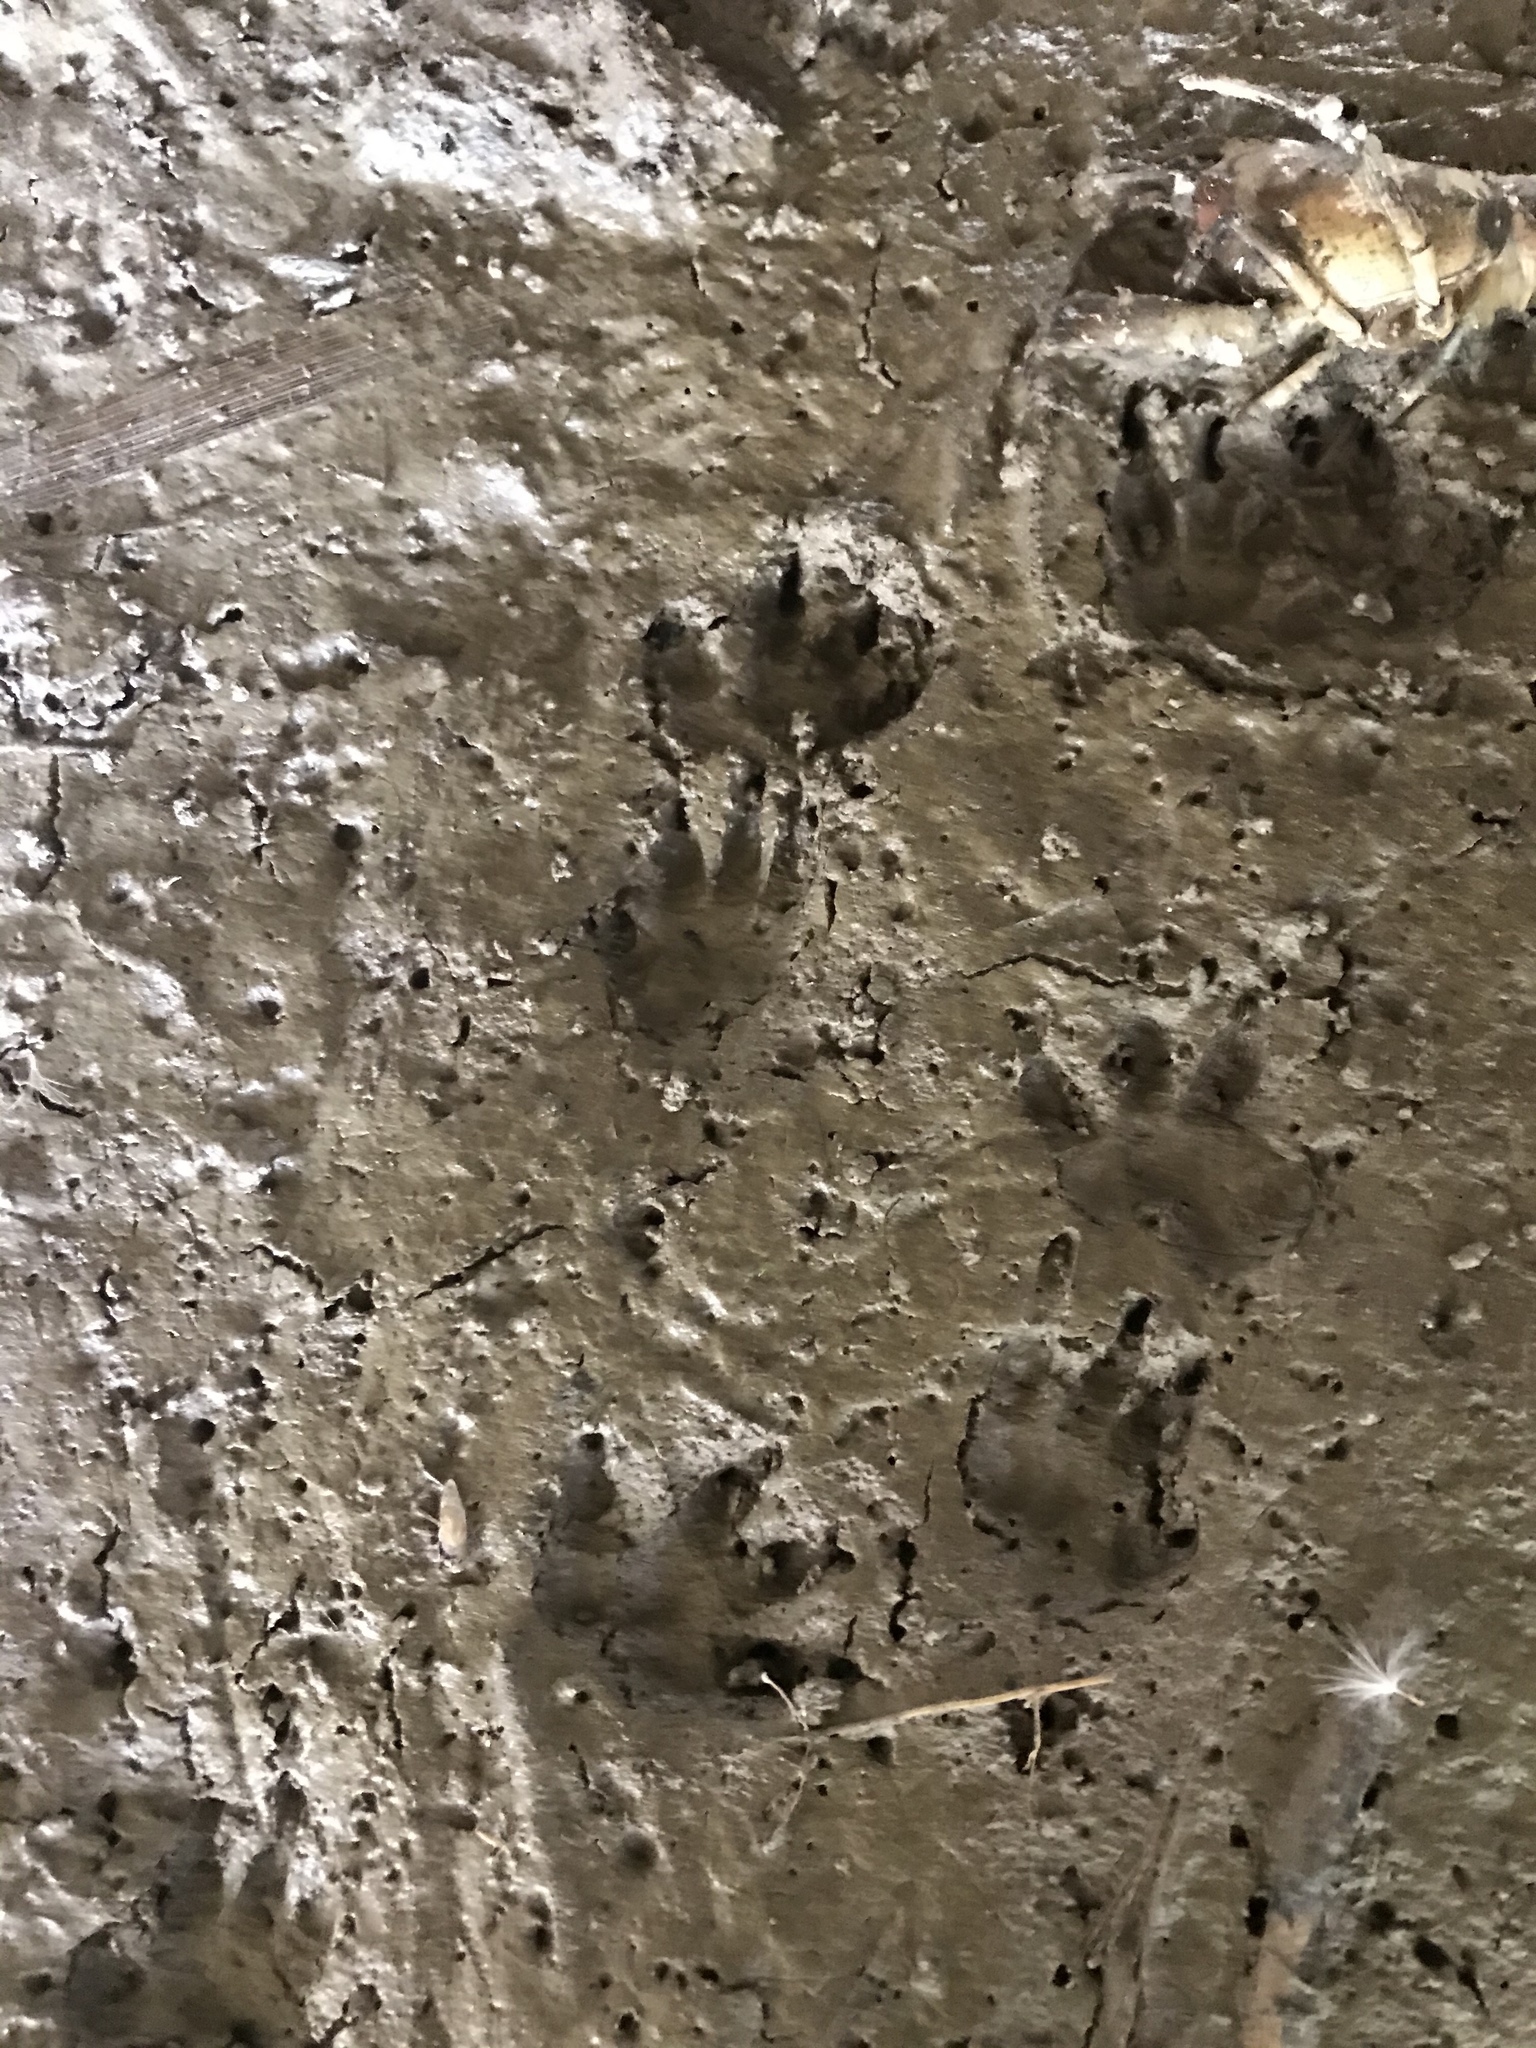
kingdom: Animalia
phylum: Chordata
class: Mammalia
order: Diprotodontia
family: Phalangeridae
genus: Trichosurus
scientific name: Trichosurus vulpecula
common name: Common brushtail
